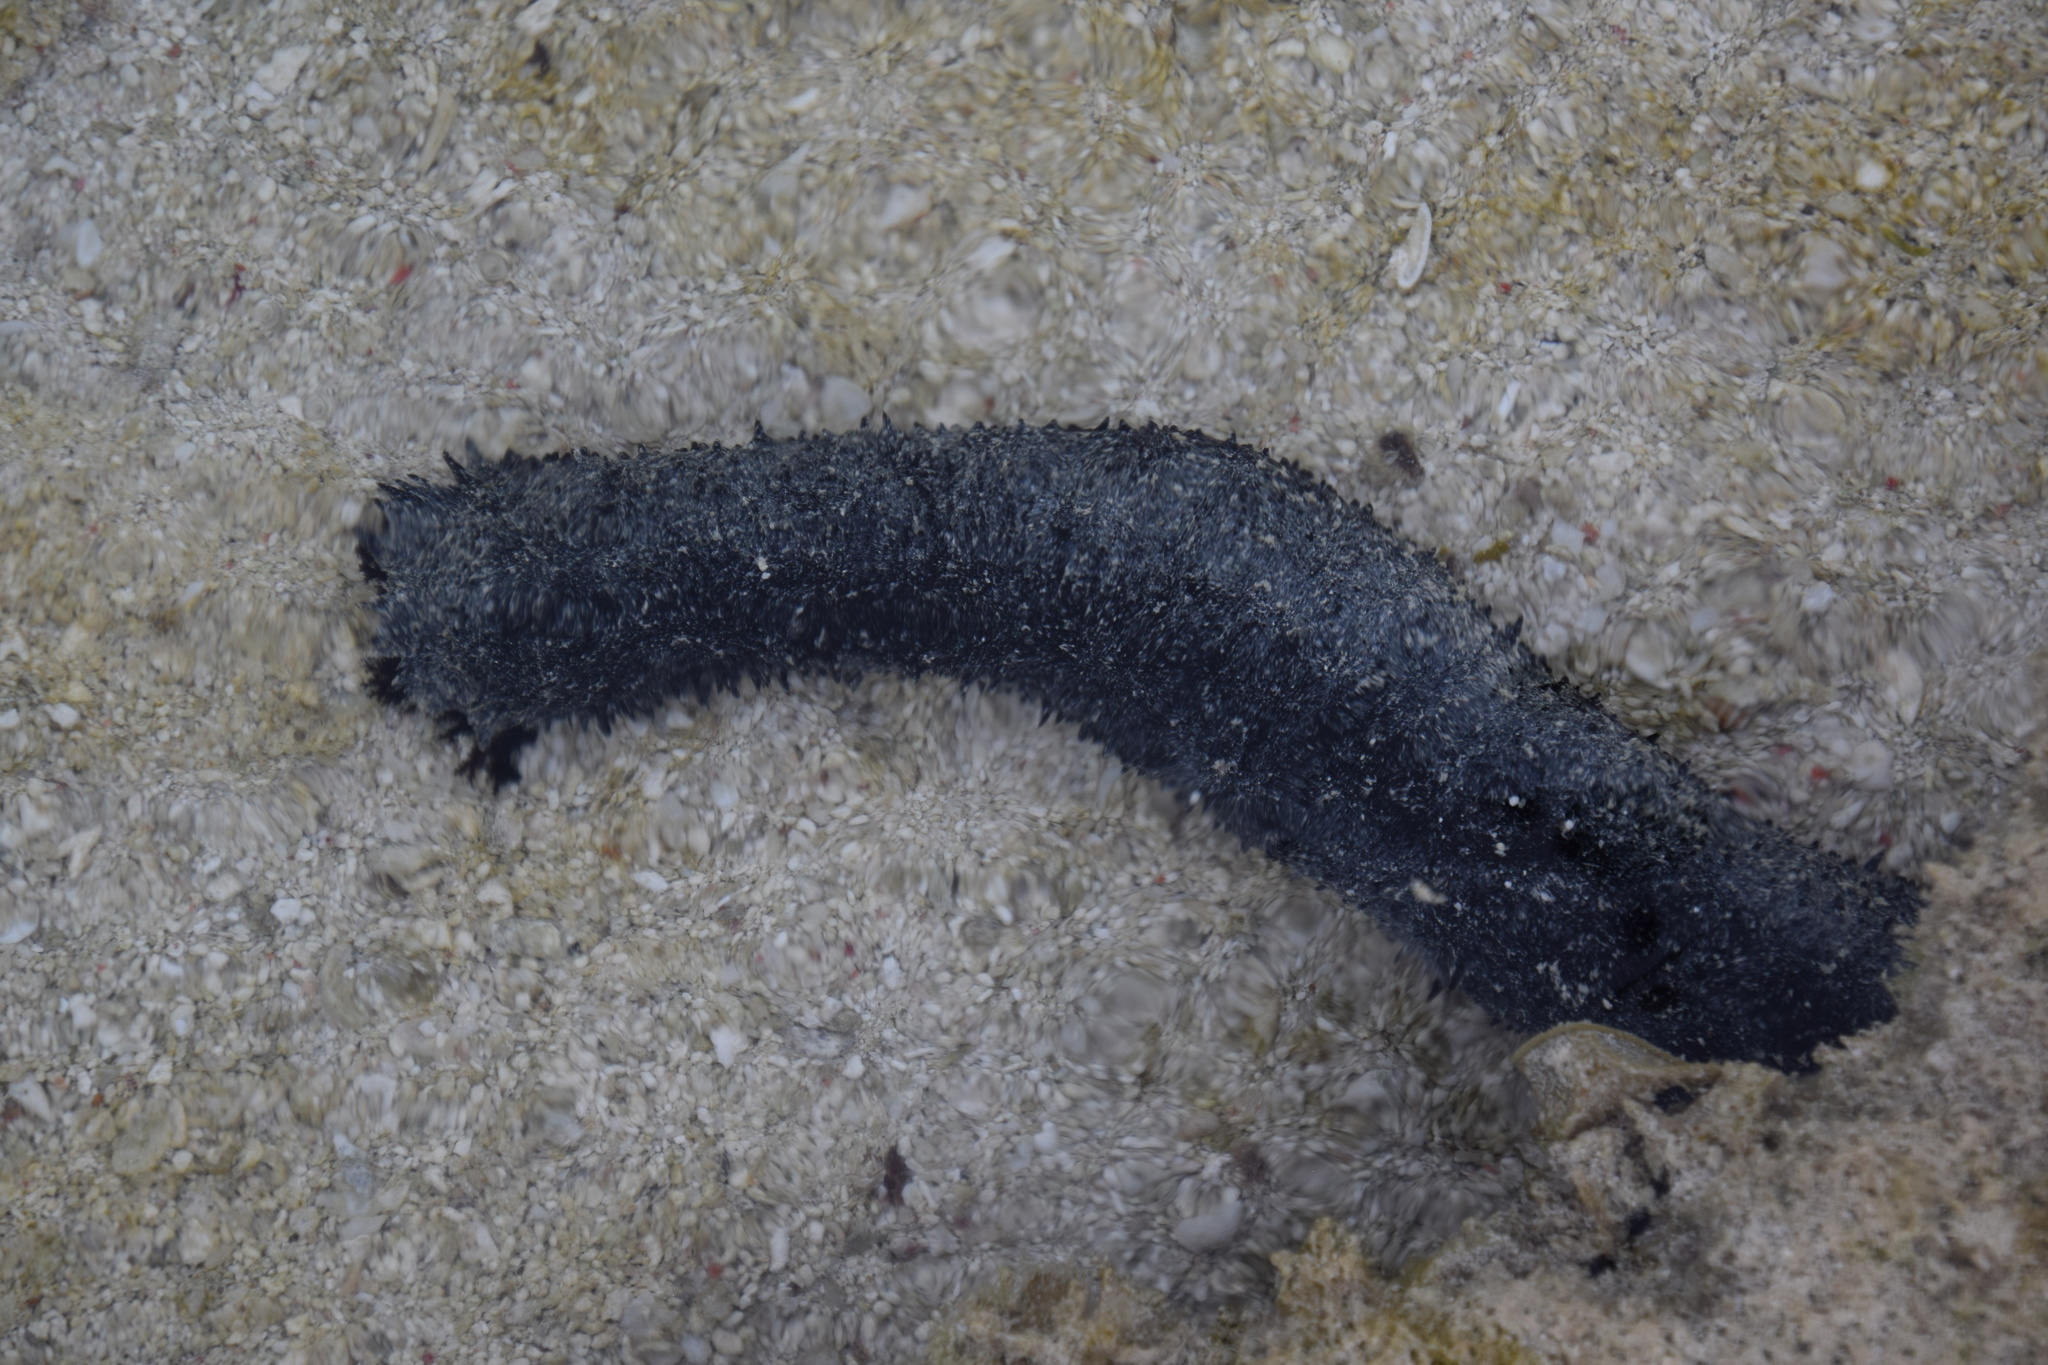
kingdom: Animalia
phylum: Echinodermata
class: Holothuroidea
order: Holothuriida
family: Holothuriidae
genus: Holothuria
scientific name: Holothuria atra
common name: Lollyfish
